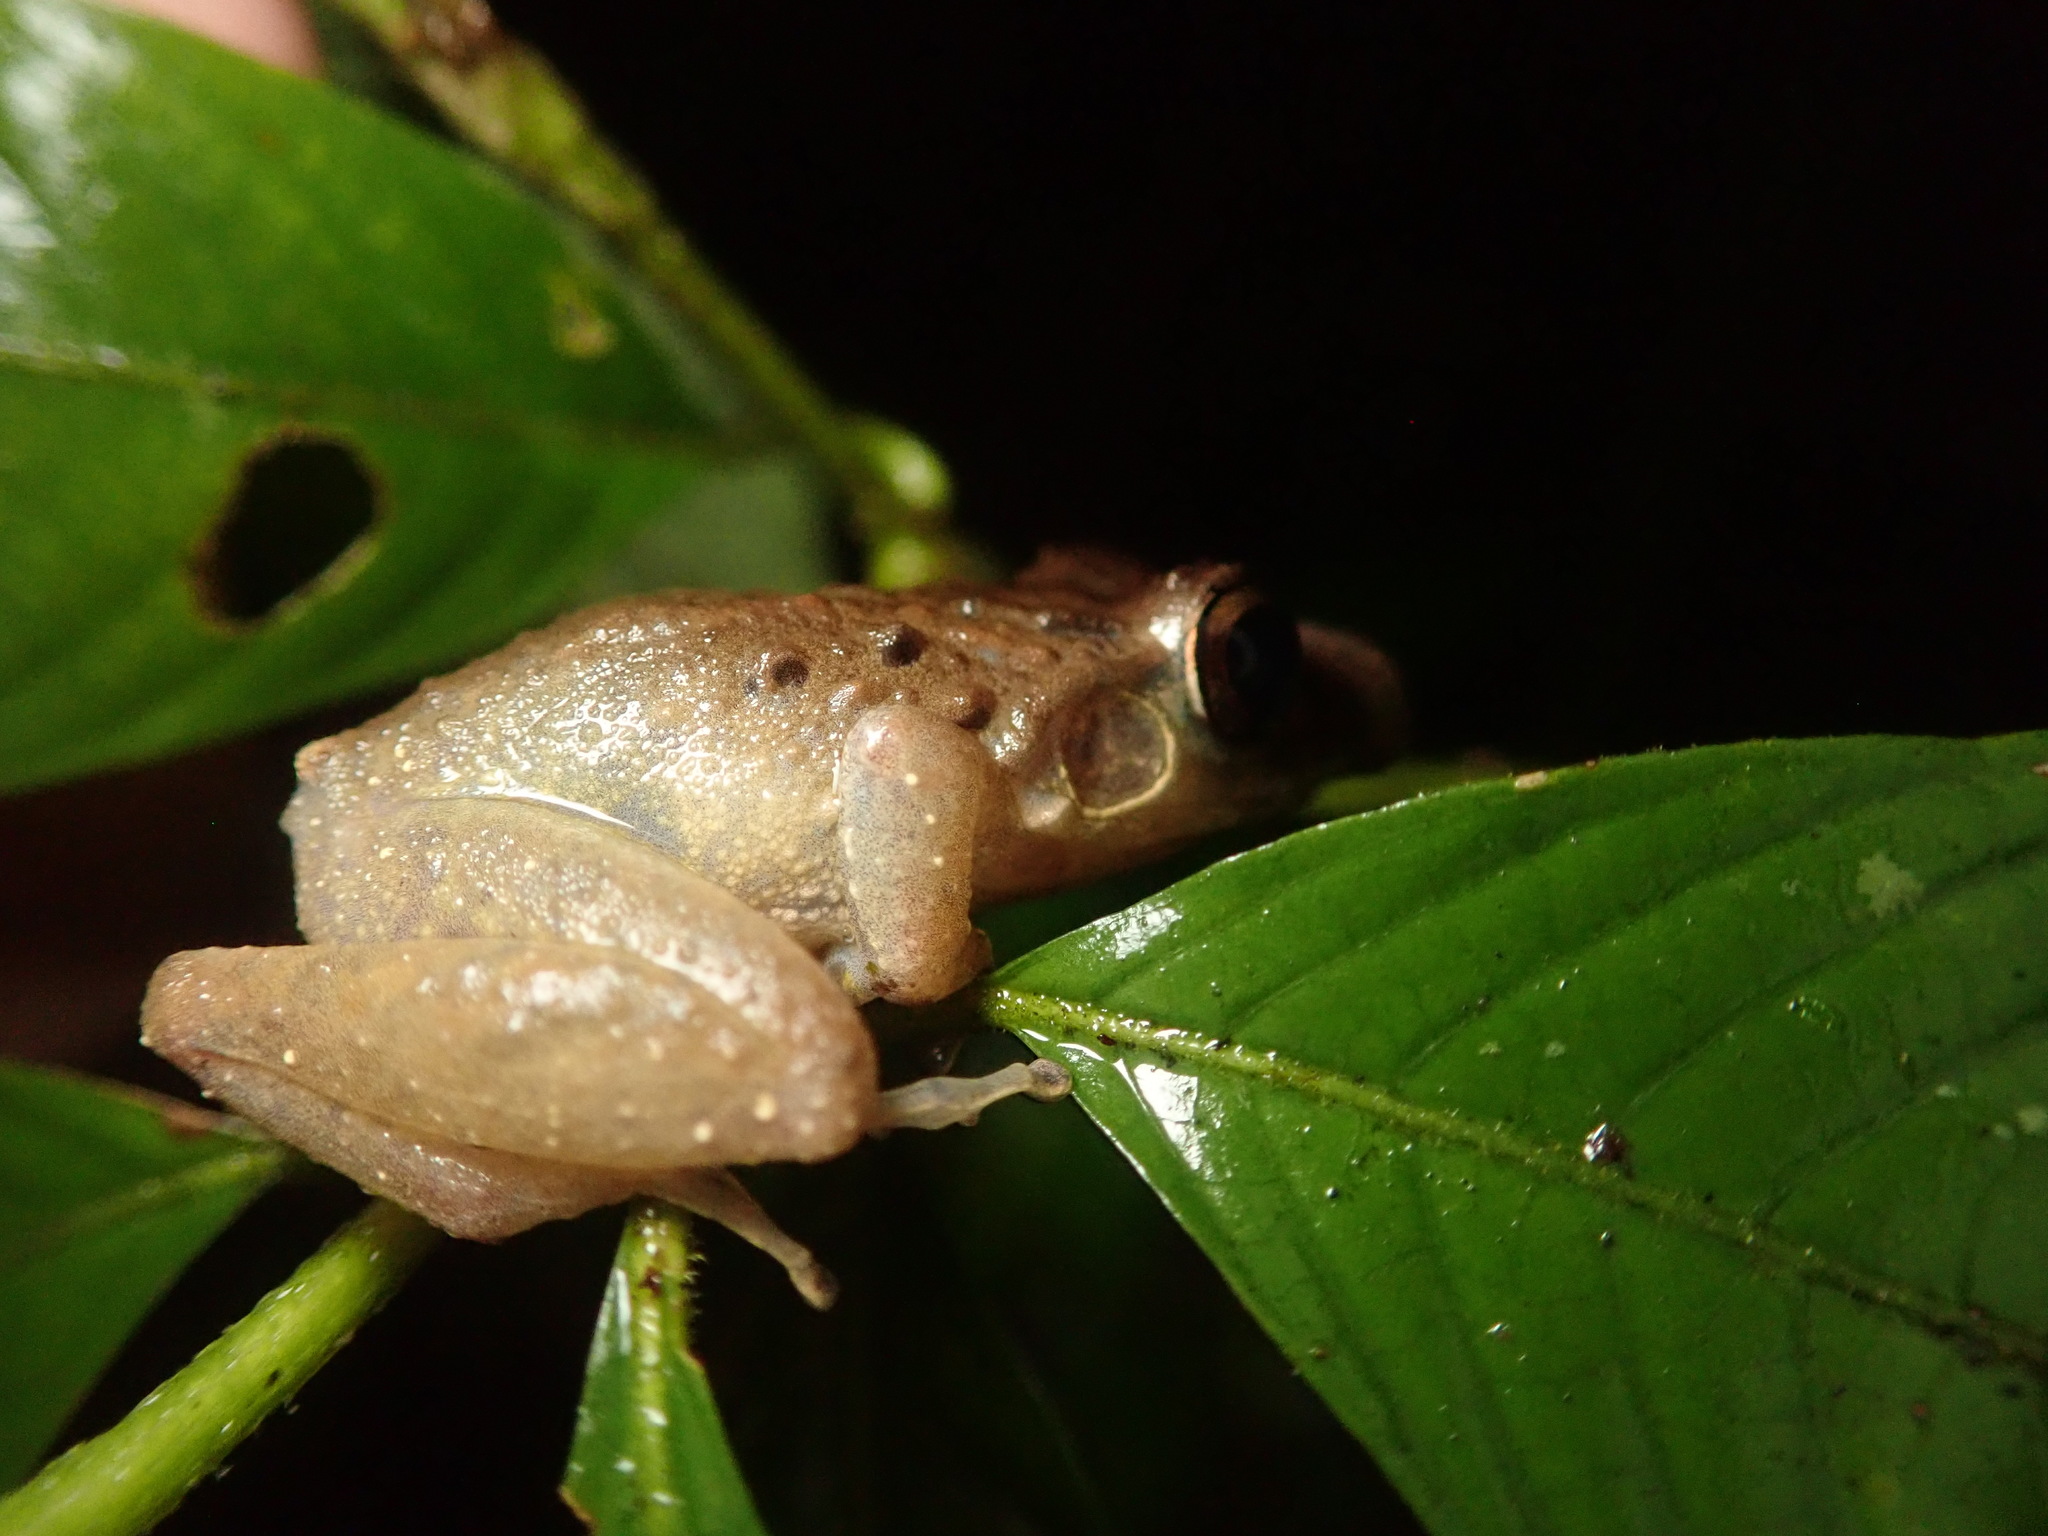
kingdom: Animalia
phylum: Chordata
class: Amphibia
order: Anura
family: Craugastoridae
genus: Craugastor
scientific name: Craugastor fitzingeri
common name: Fitzinger's robber frog
